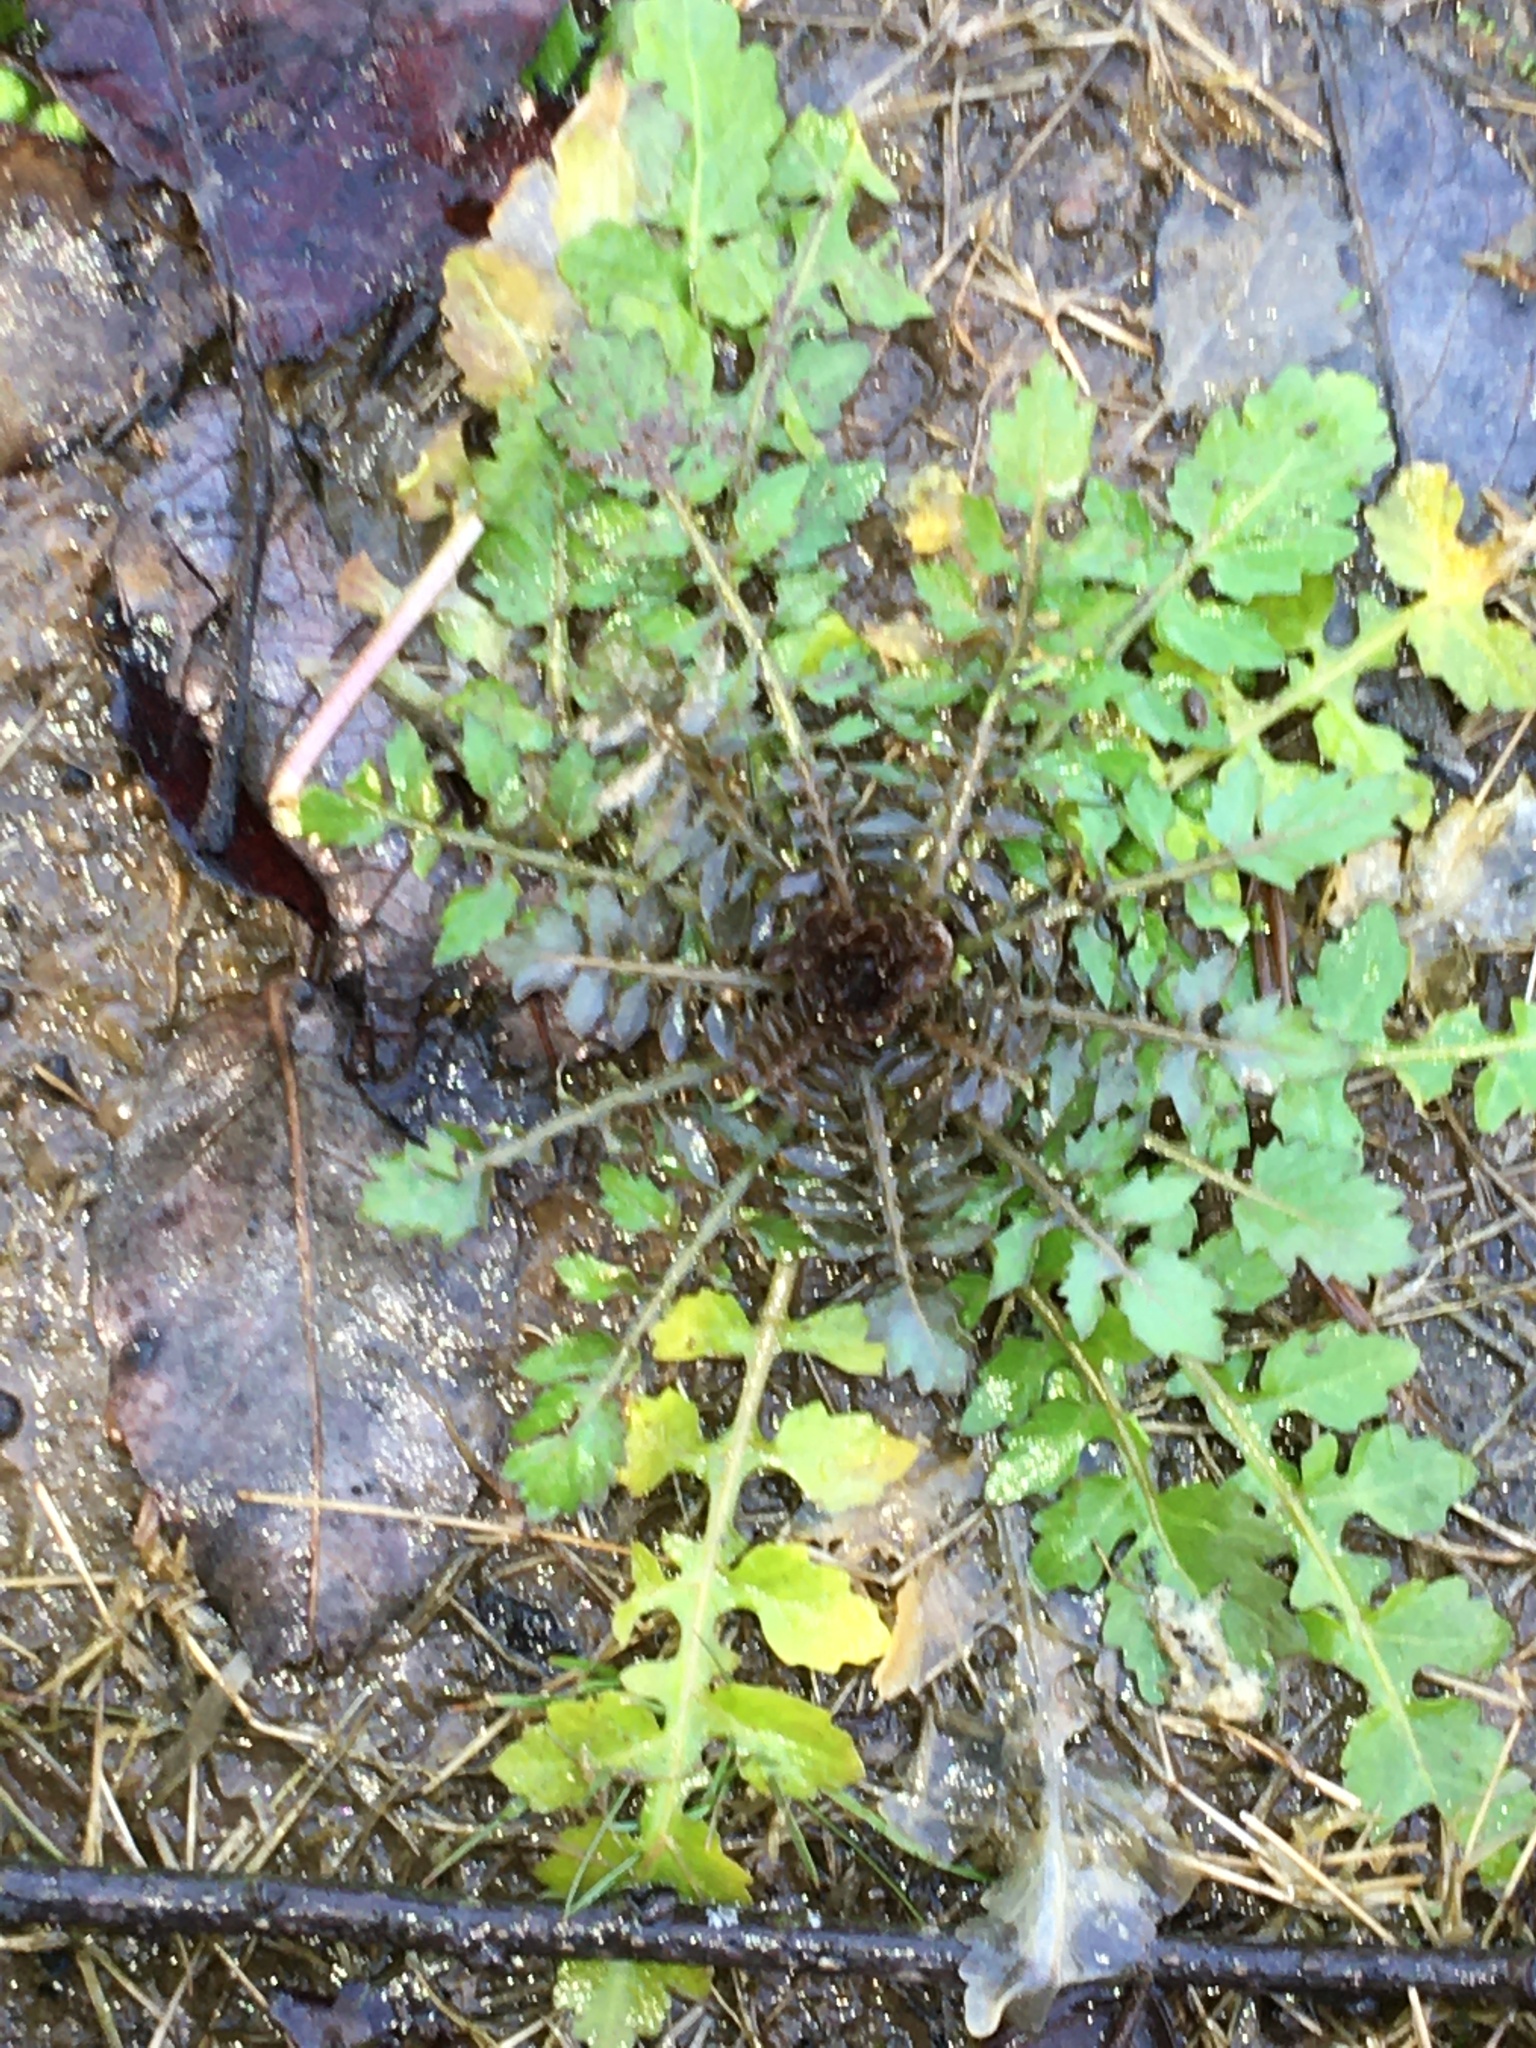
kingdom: Plantae
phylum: Tracheophyta
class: Magnoliopsida
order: Brassicales
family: Brassicaceae
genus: Rorippa
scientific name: Rorippa sylvestris
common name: Creeping yellowcress
